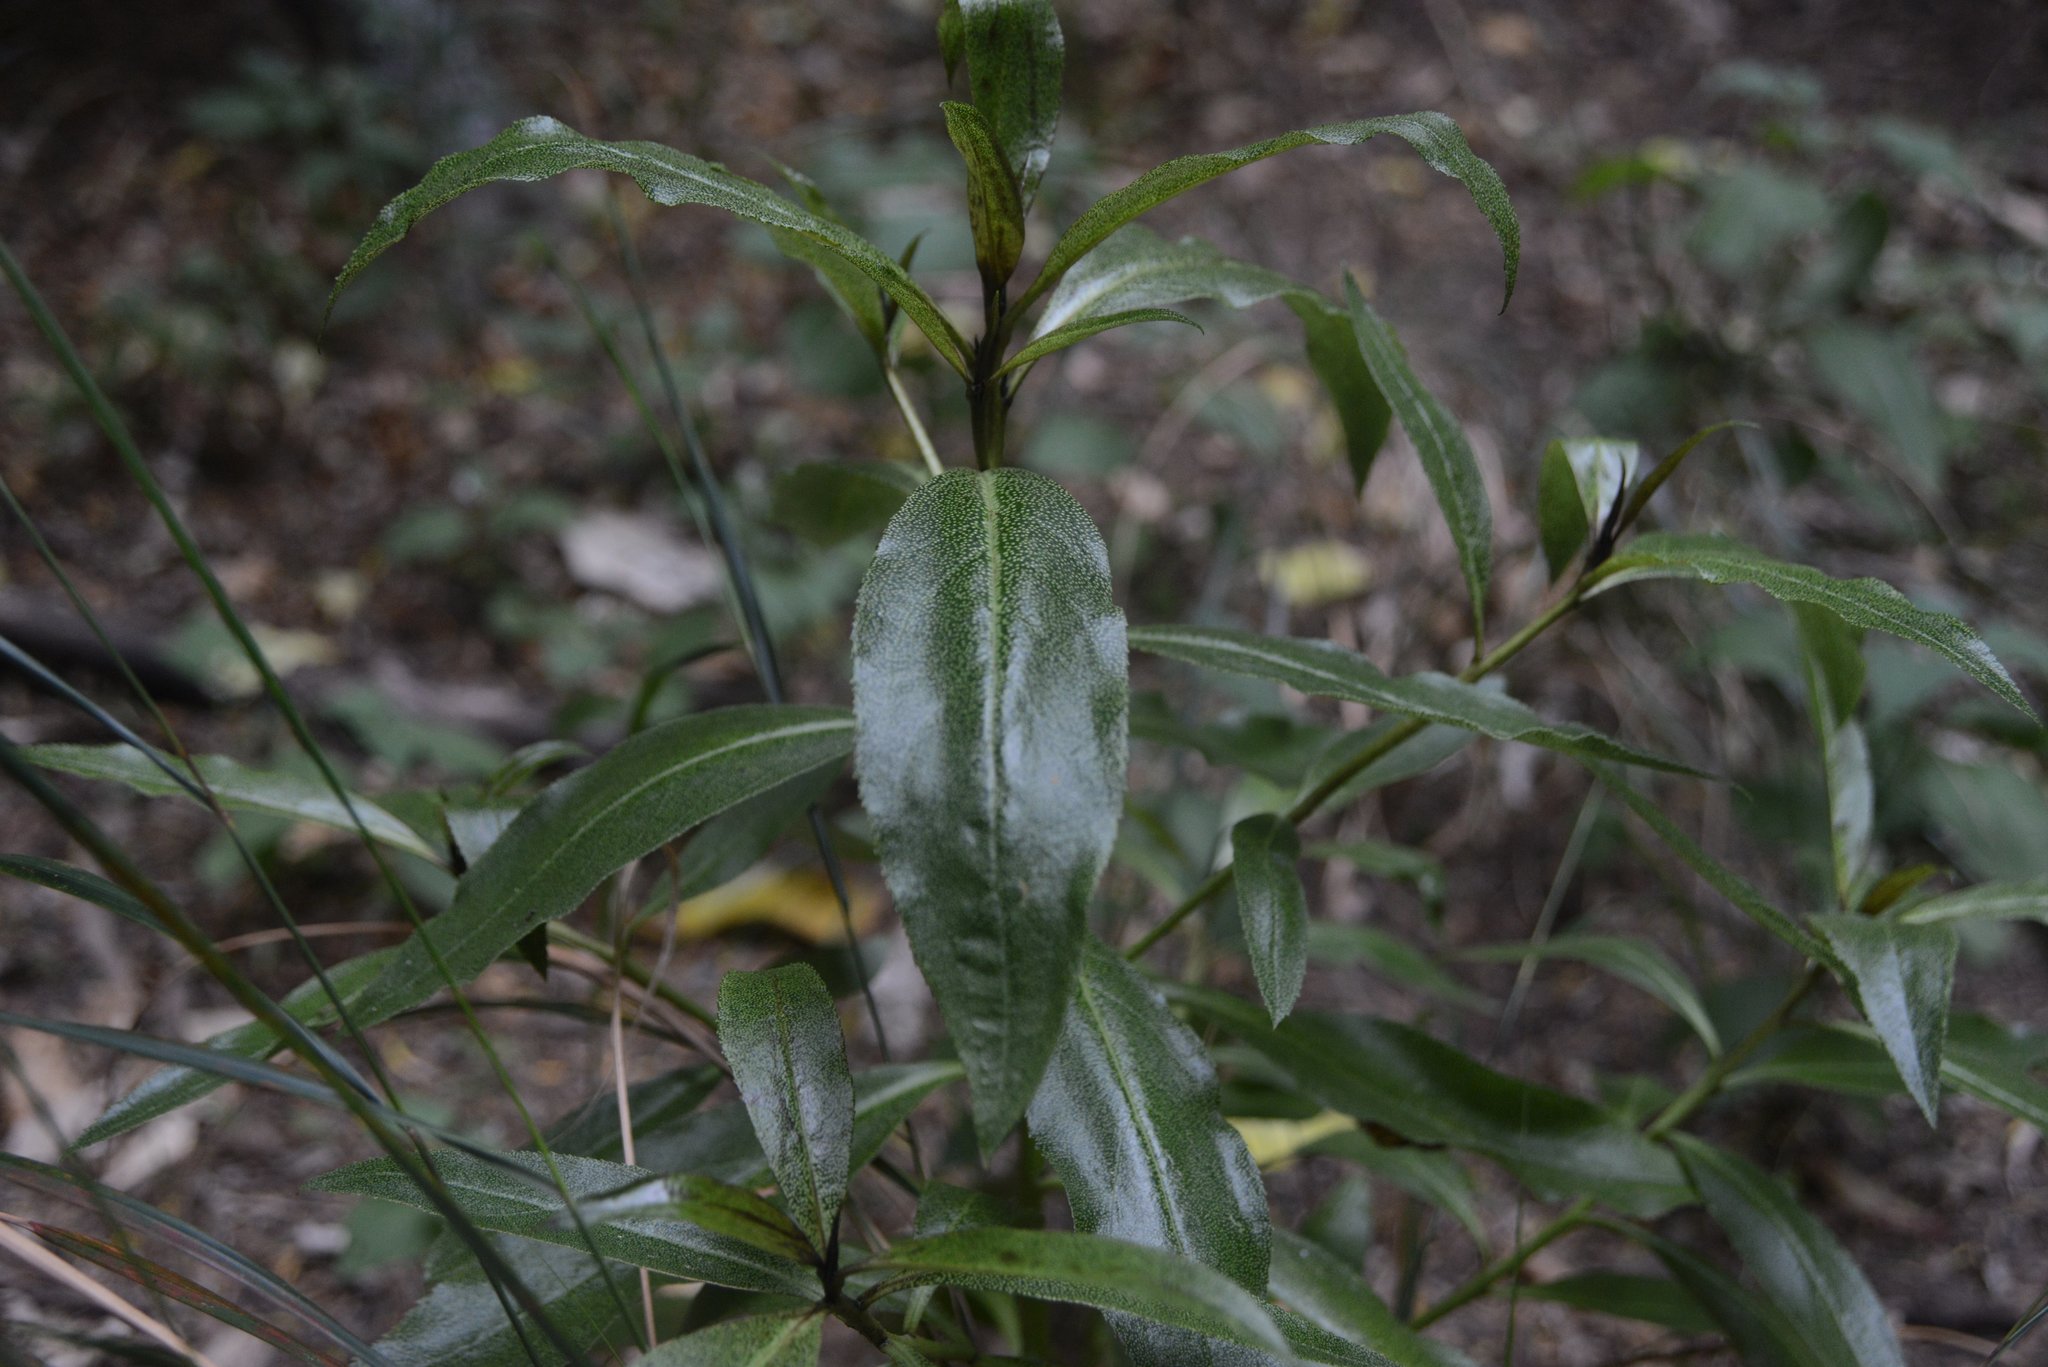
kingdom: Plantae
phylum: Tracheophyta
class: Magnoliopsida
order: Lamiales
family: Scrophulariaceae
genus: Myoporum
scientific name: Myoporum laetum
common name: Ngaio tree
